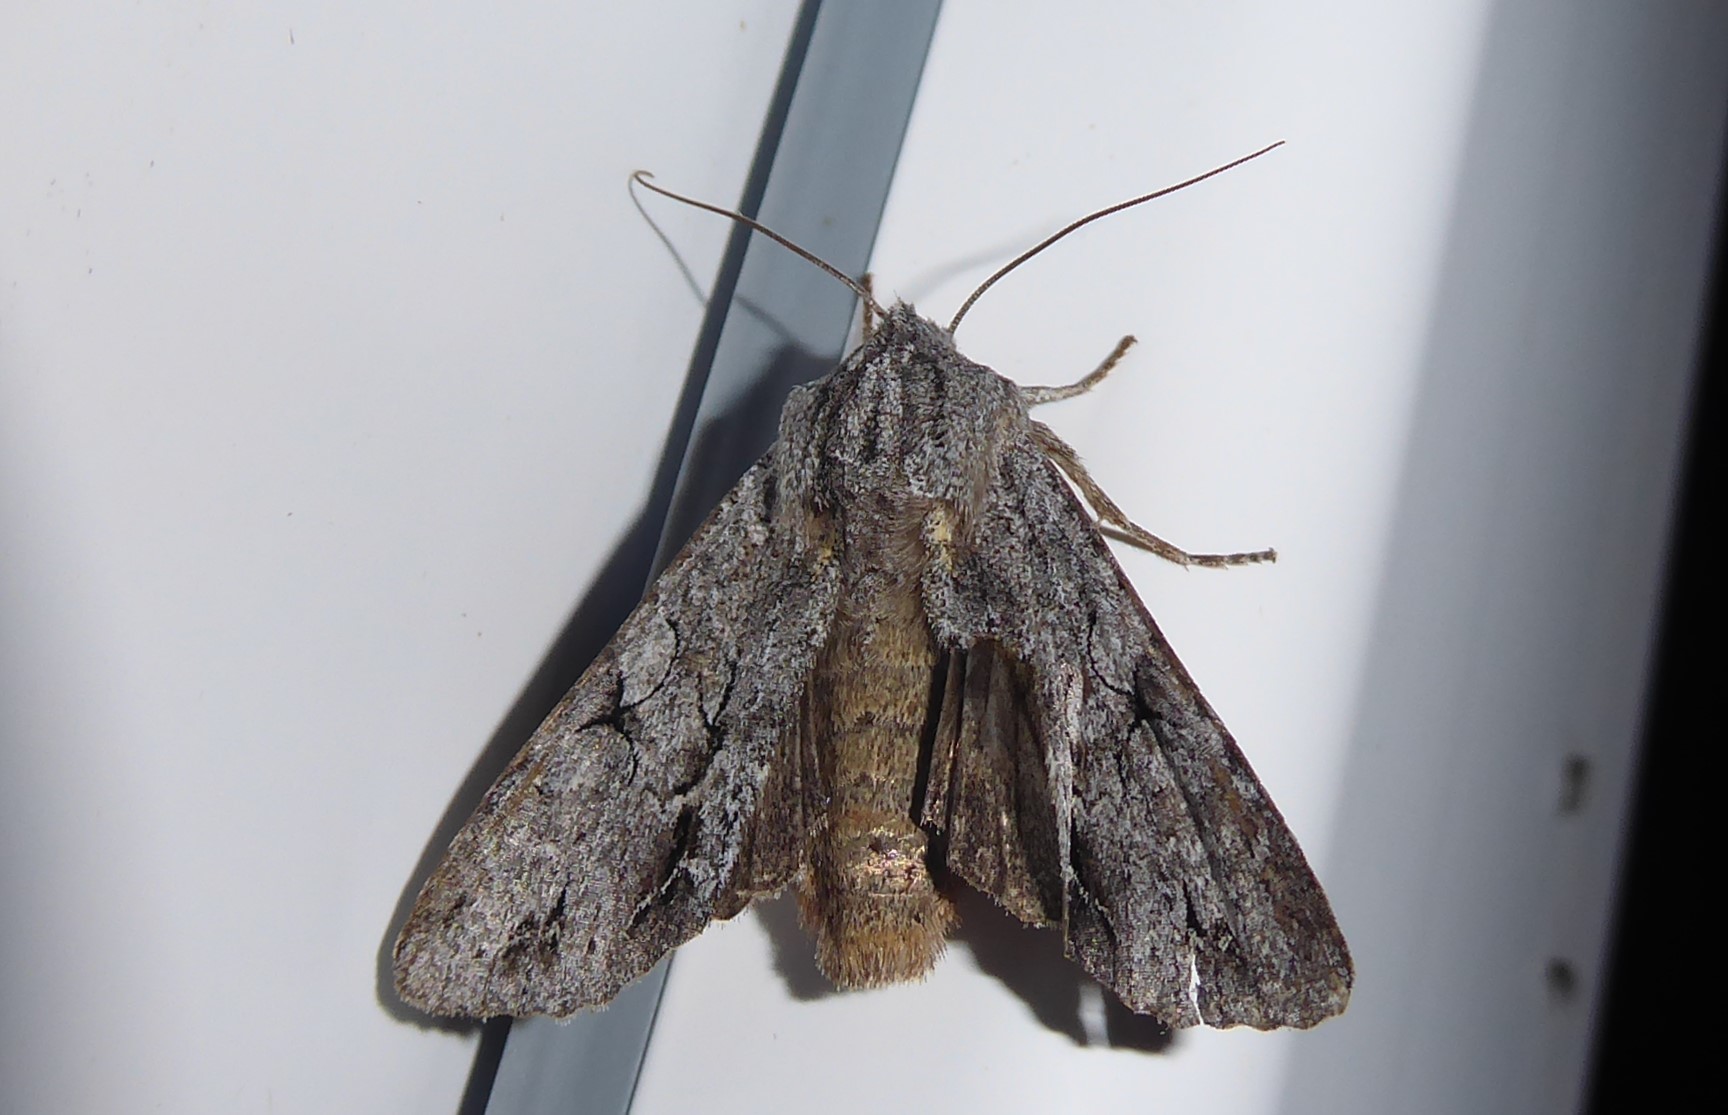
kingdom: Animalia
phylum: Arthropoda
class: Insecta
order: Lepidoptera
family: Noctuidae
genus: Ichneutica
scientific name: Ichneutica
